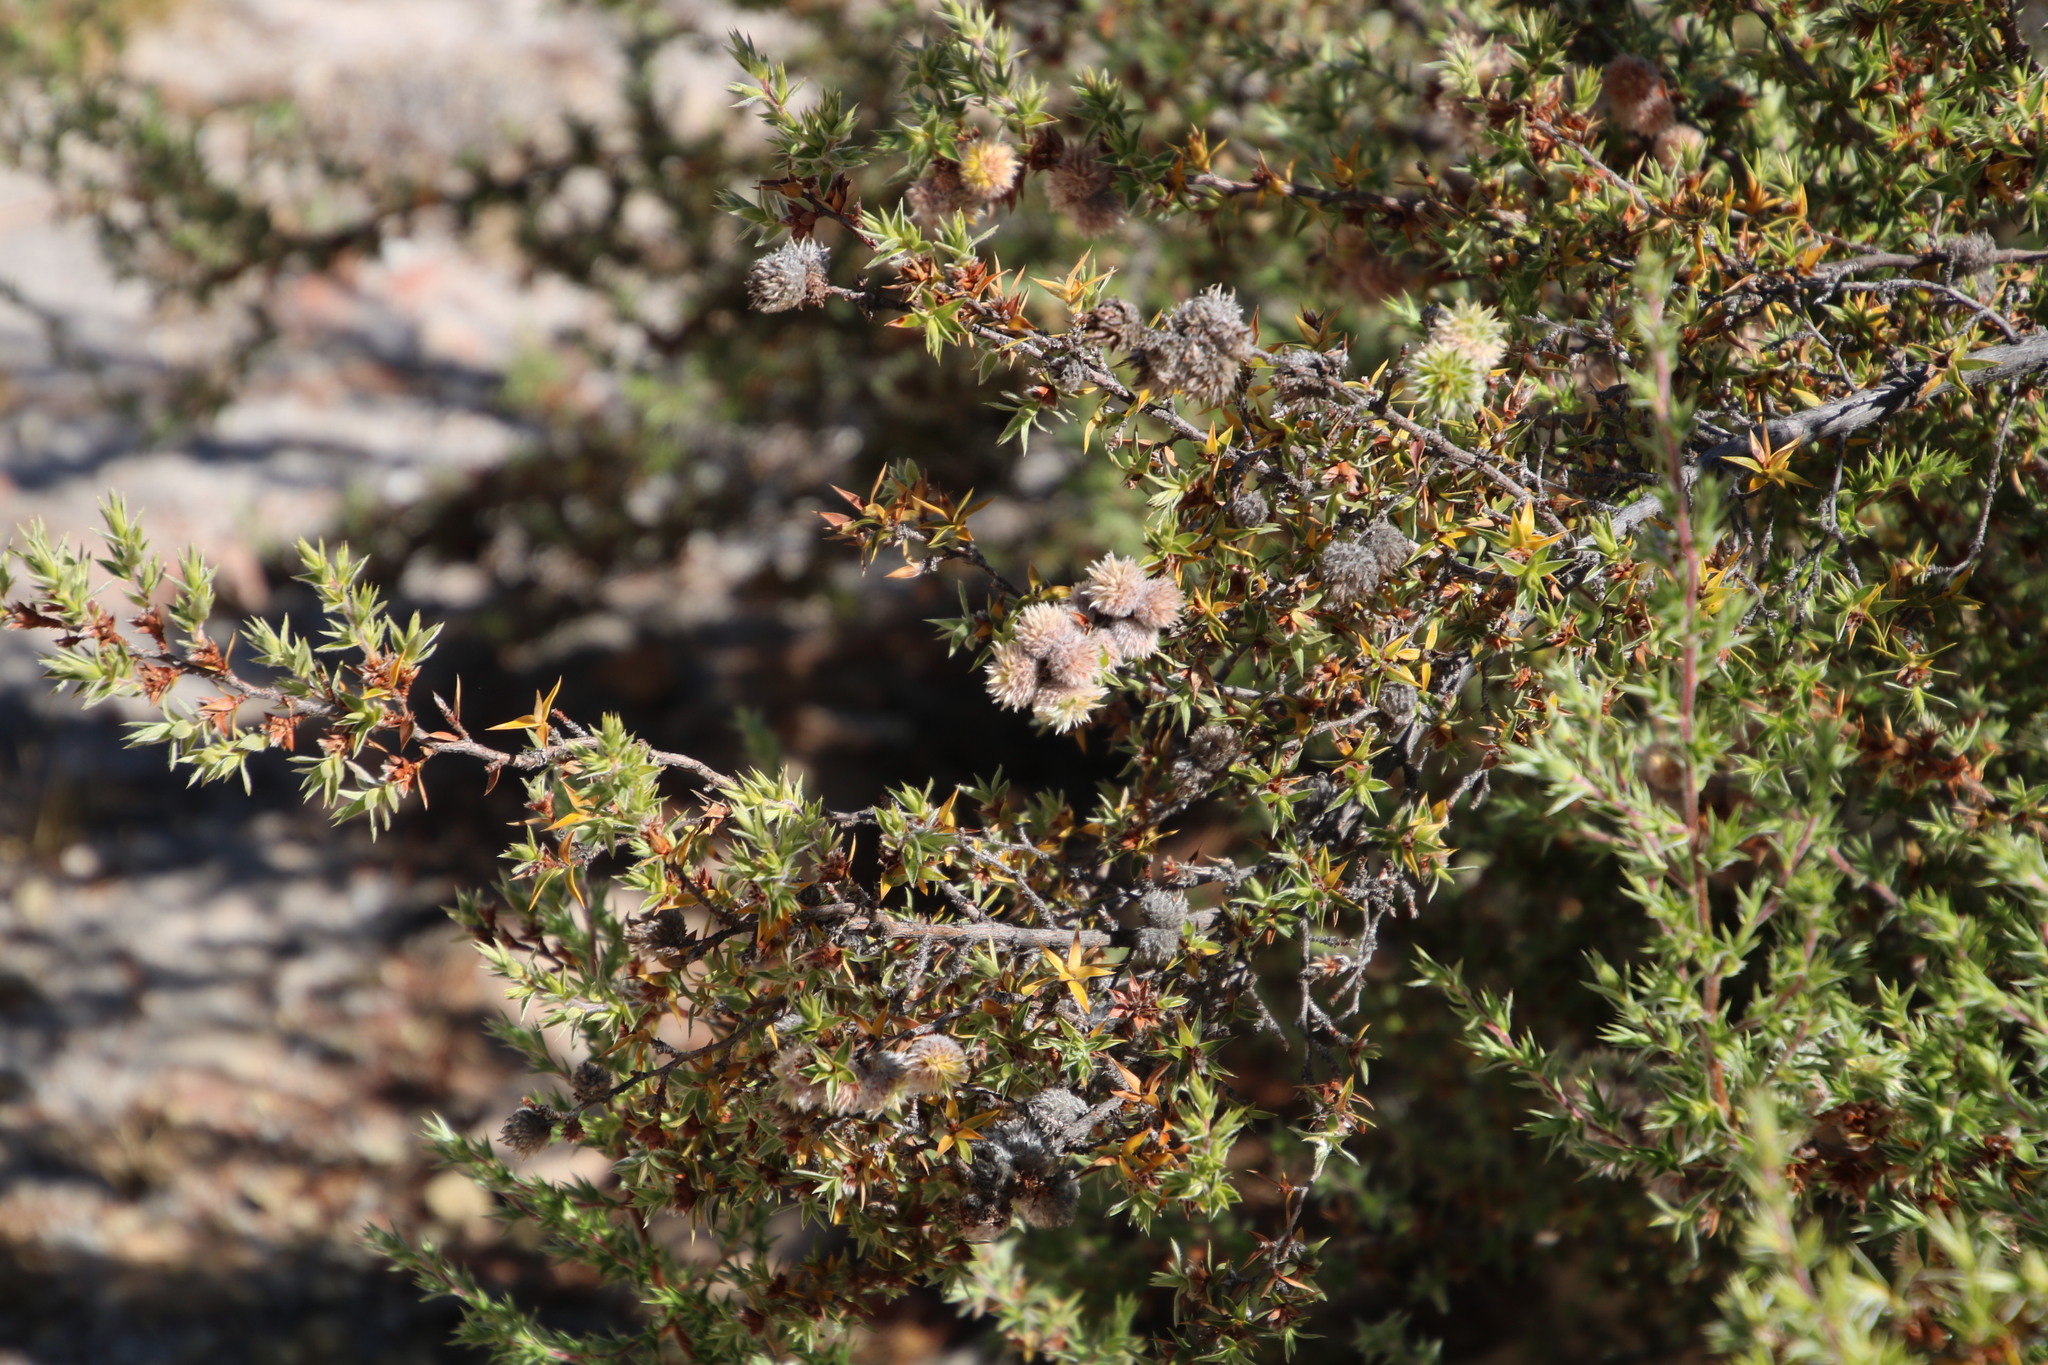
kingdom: Plantae
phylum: Tracheophyta
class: Magnoliopsida
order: Rosales
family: Rosaceae
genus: Cliffortia
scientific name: Cliffortia ruscifolia
